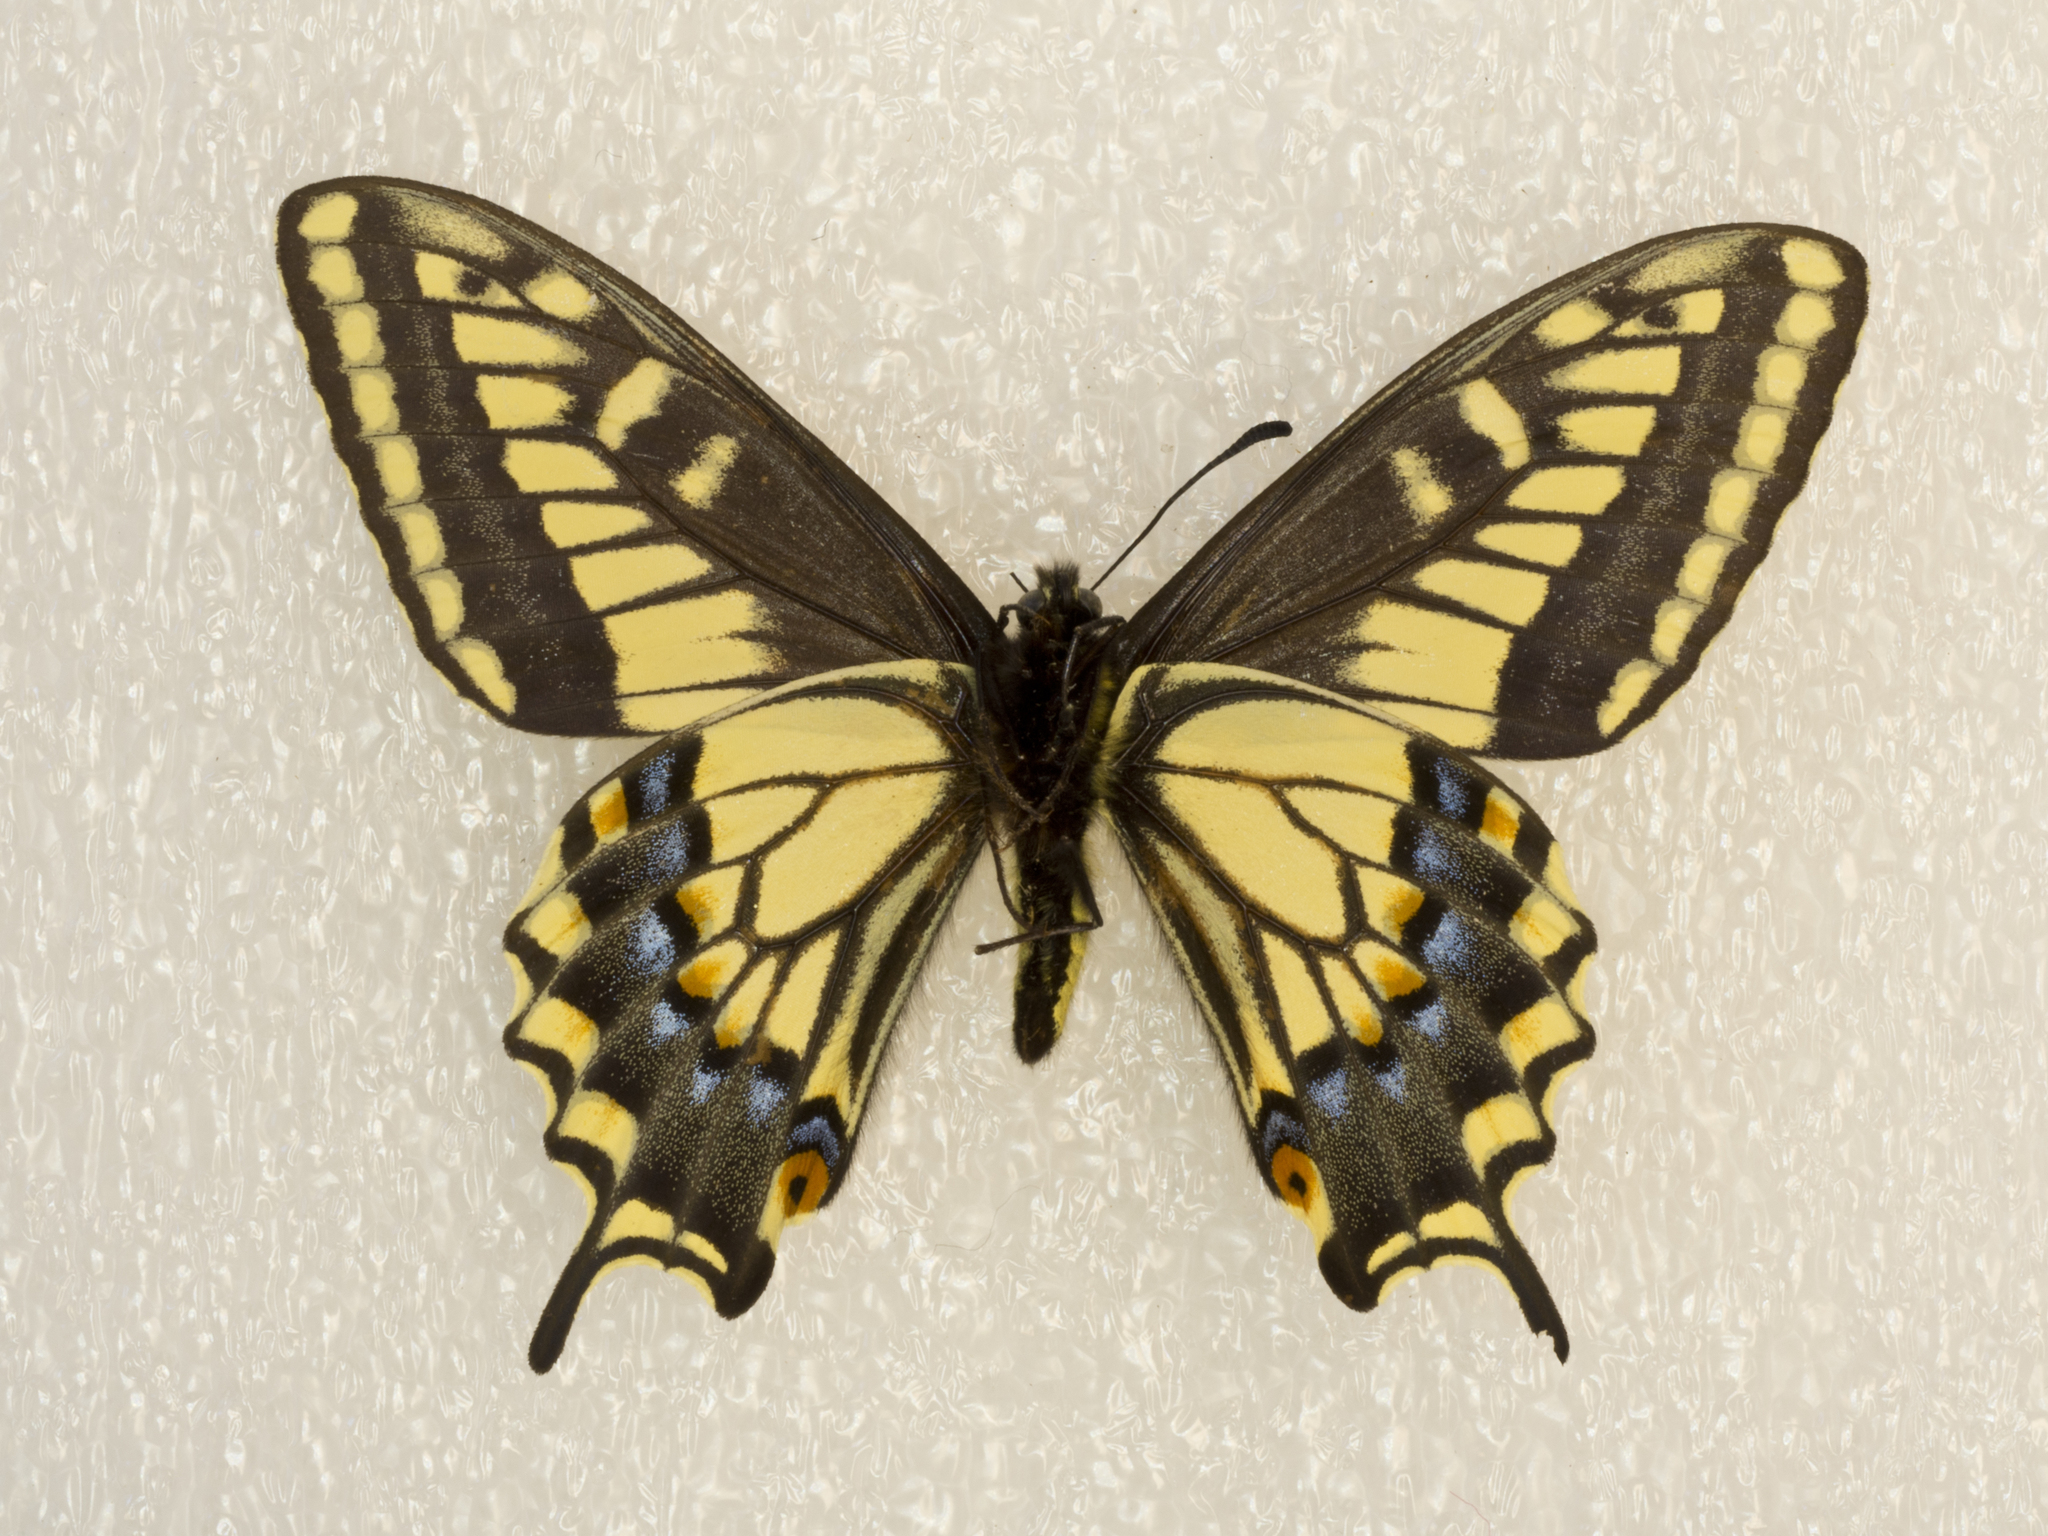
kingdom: Animalia
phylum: Arthropoda
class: Insecta
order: Lepidoptera
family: Papilionidae
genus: Papilio
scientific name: Papilio zelicaon
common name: Anise swallowtail
